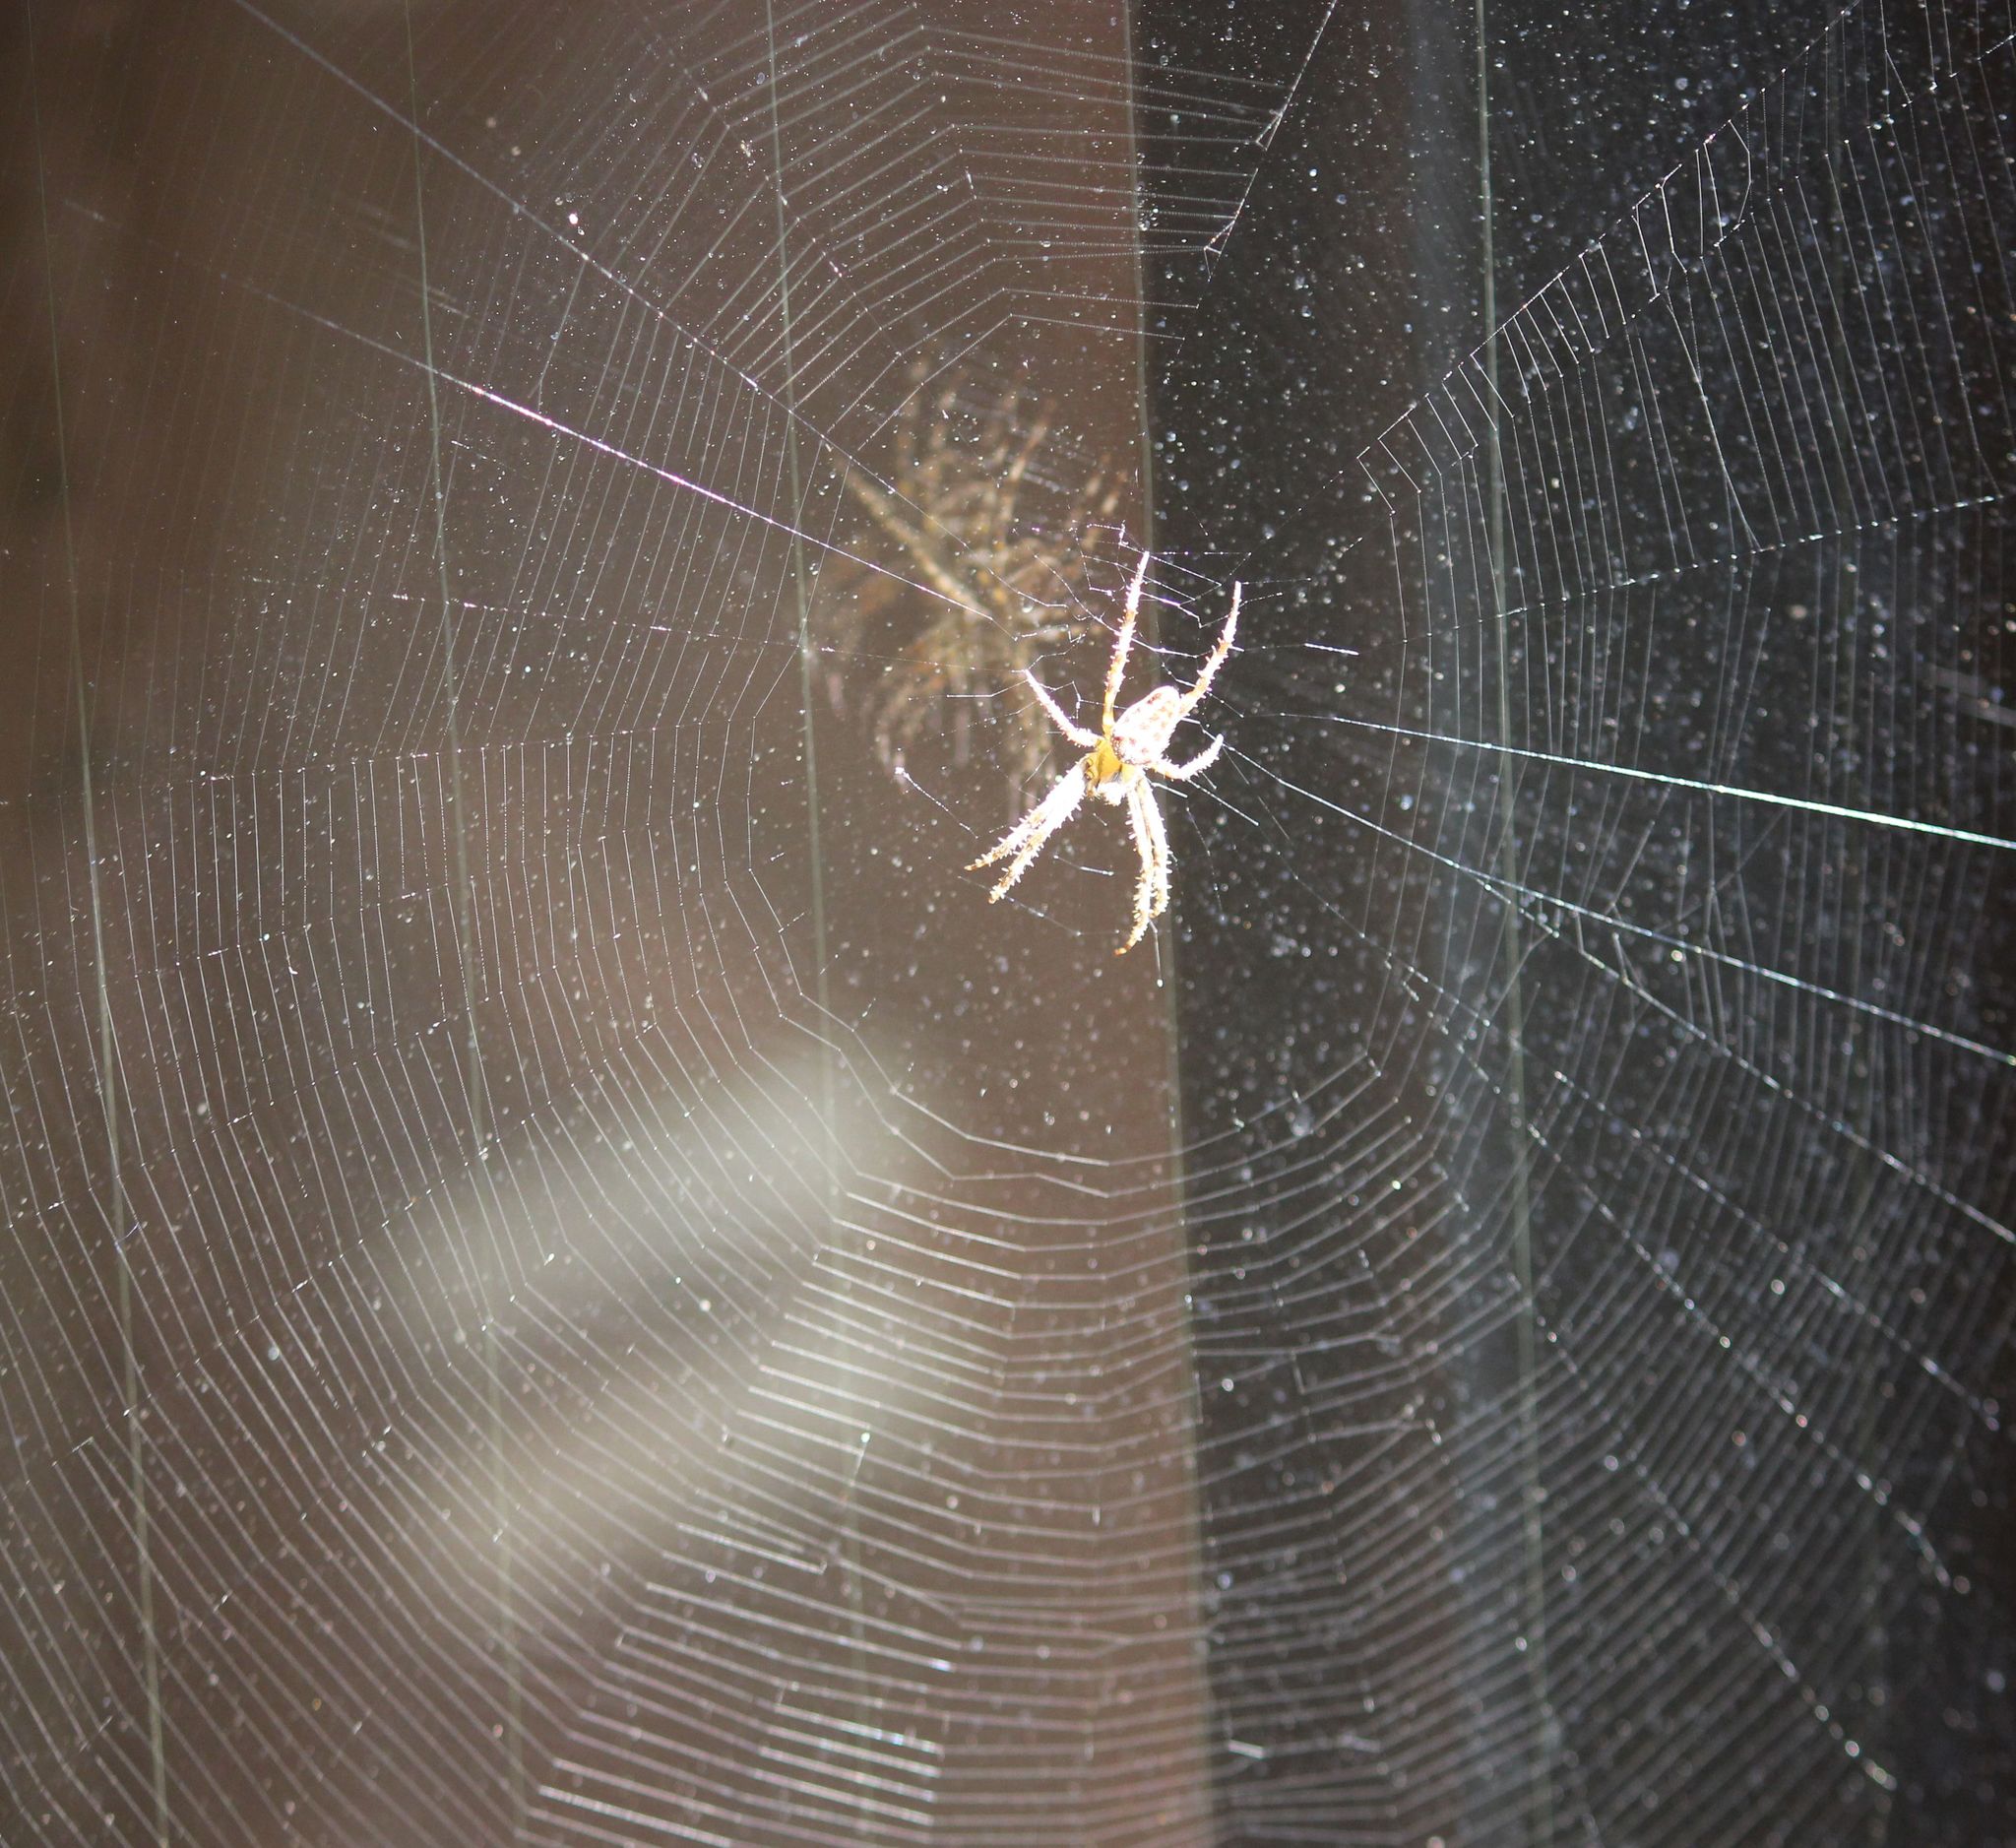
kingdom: Animalia
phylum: Arthropoda
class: Arachnida
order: Araneae
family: Araneidae
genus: Araneus
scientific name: Araneus diadematus
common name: Cross orbweaver
